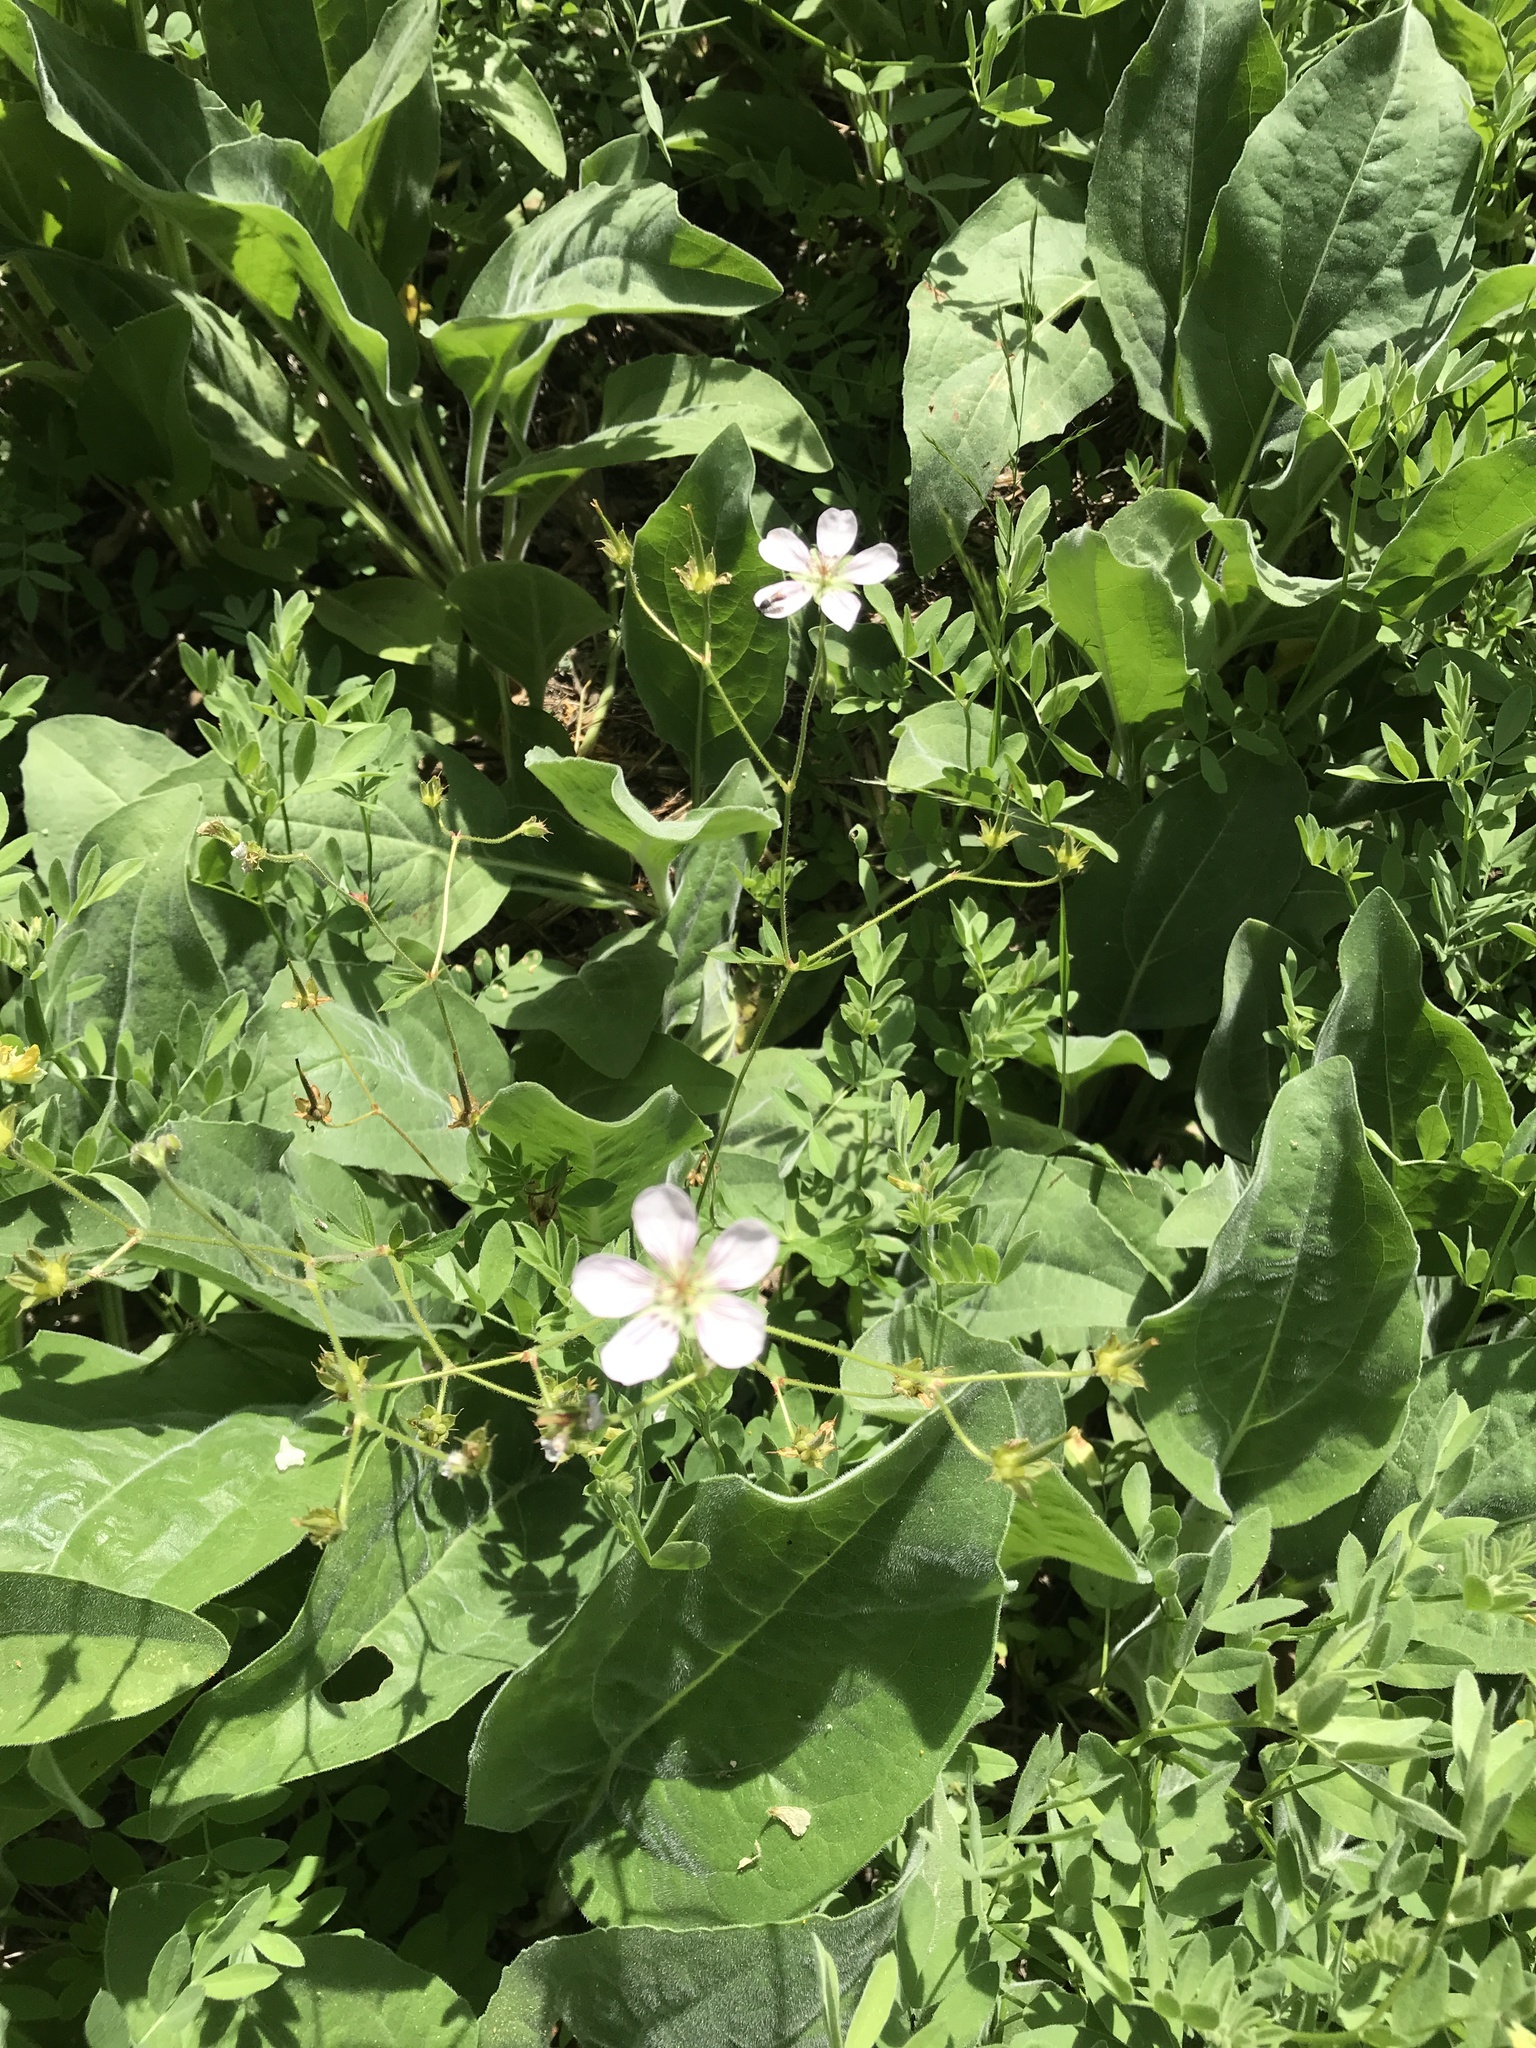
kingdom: Plantae
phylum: Tracheophyta
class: Magnoliopsida
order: Geraniales
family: Geraniaceae
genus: Geranium
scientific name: Geranium richardsonii
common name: Richardson's crane's-bill
